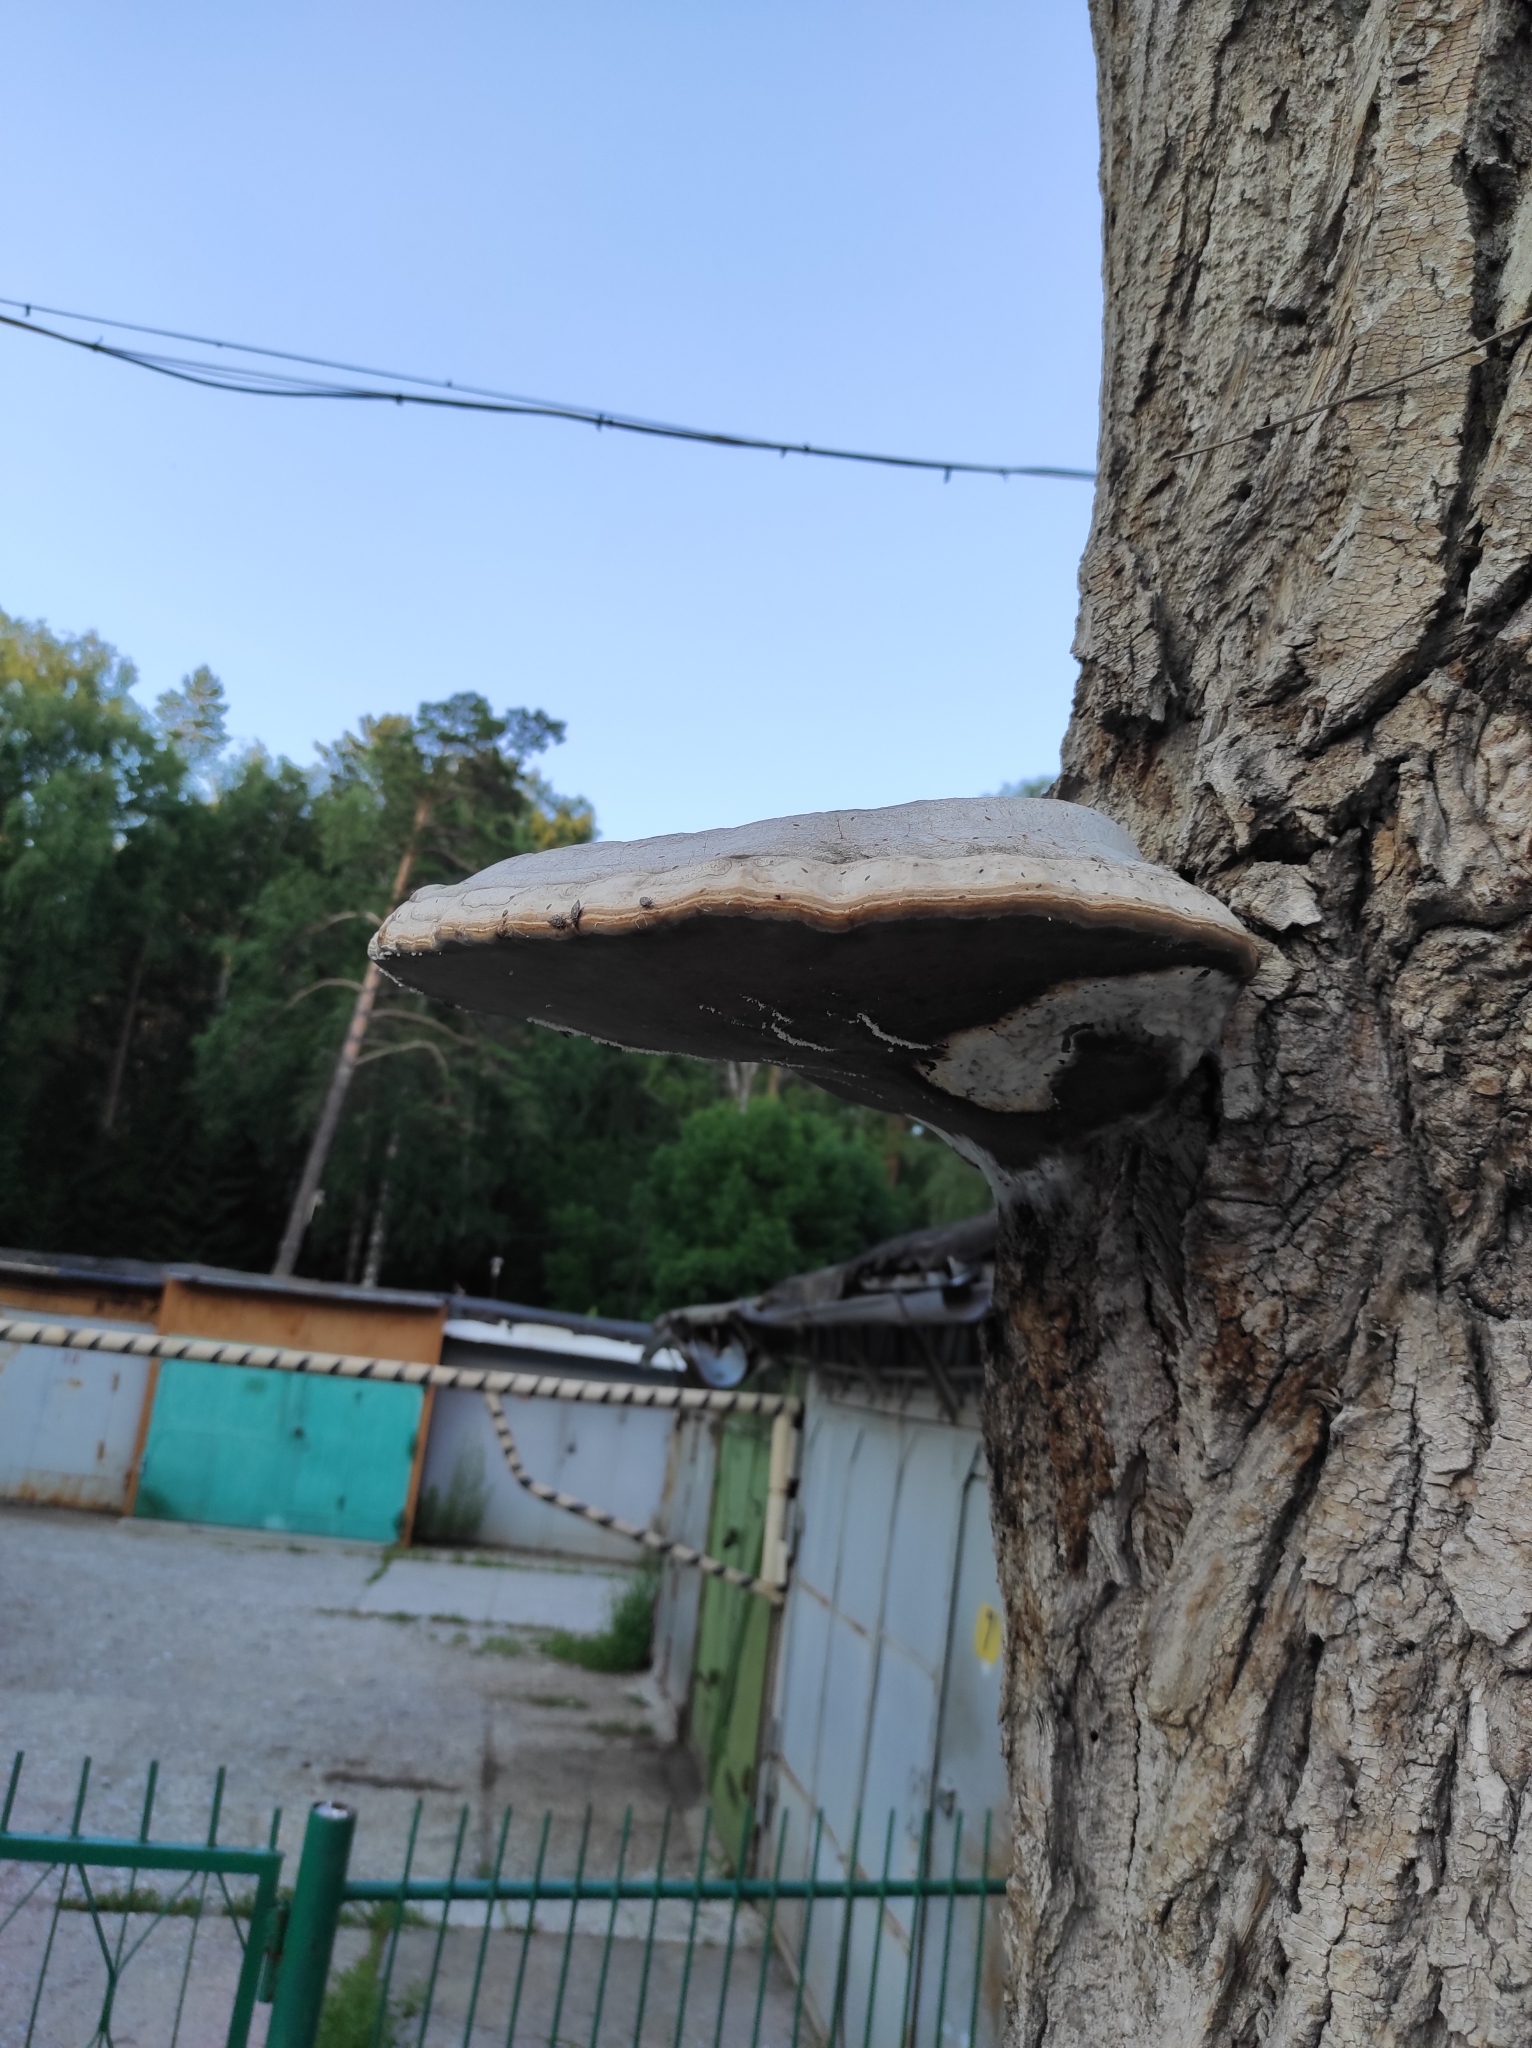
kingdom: Fungi
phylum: Basidiomycota
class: Agaricomycetes
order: Polyporales
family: Polyporaceae
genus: Fomes
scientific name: Fomes fomentarius
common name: Hoof fungus
